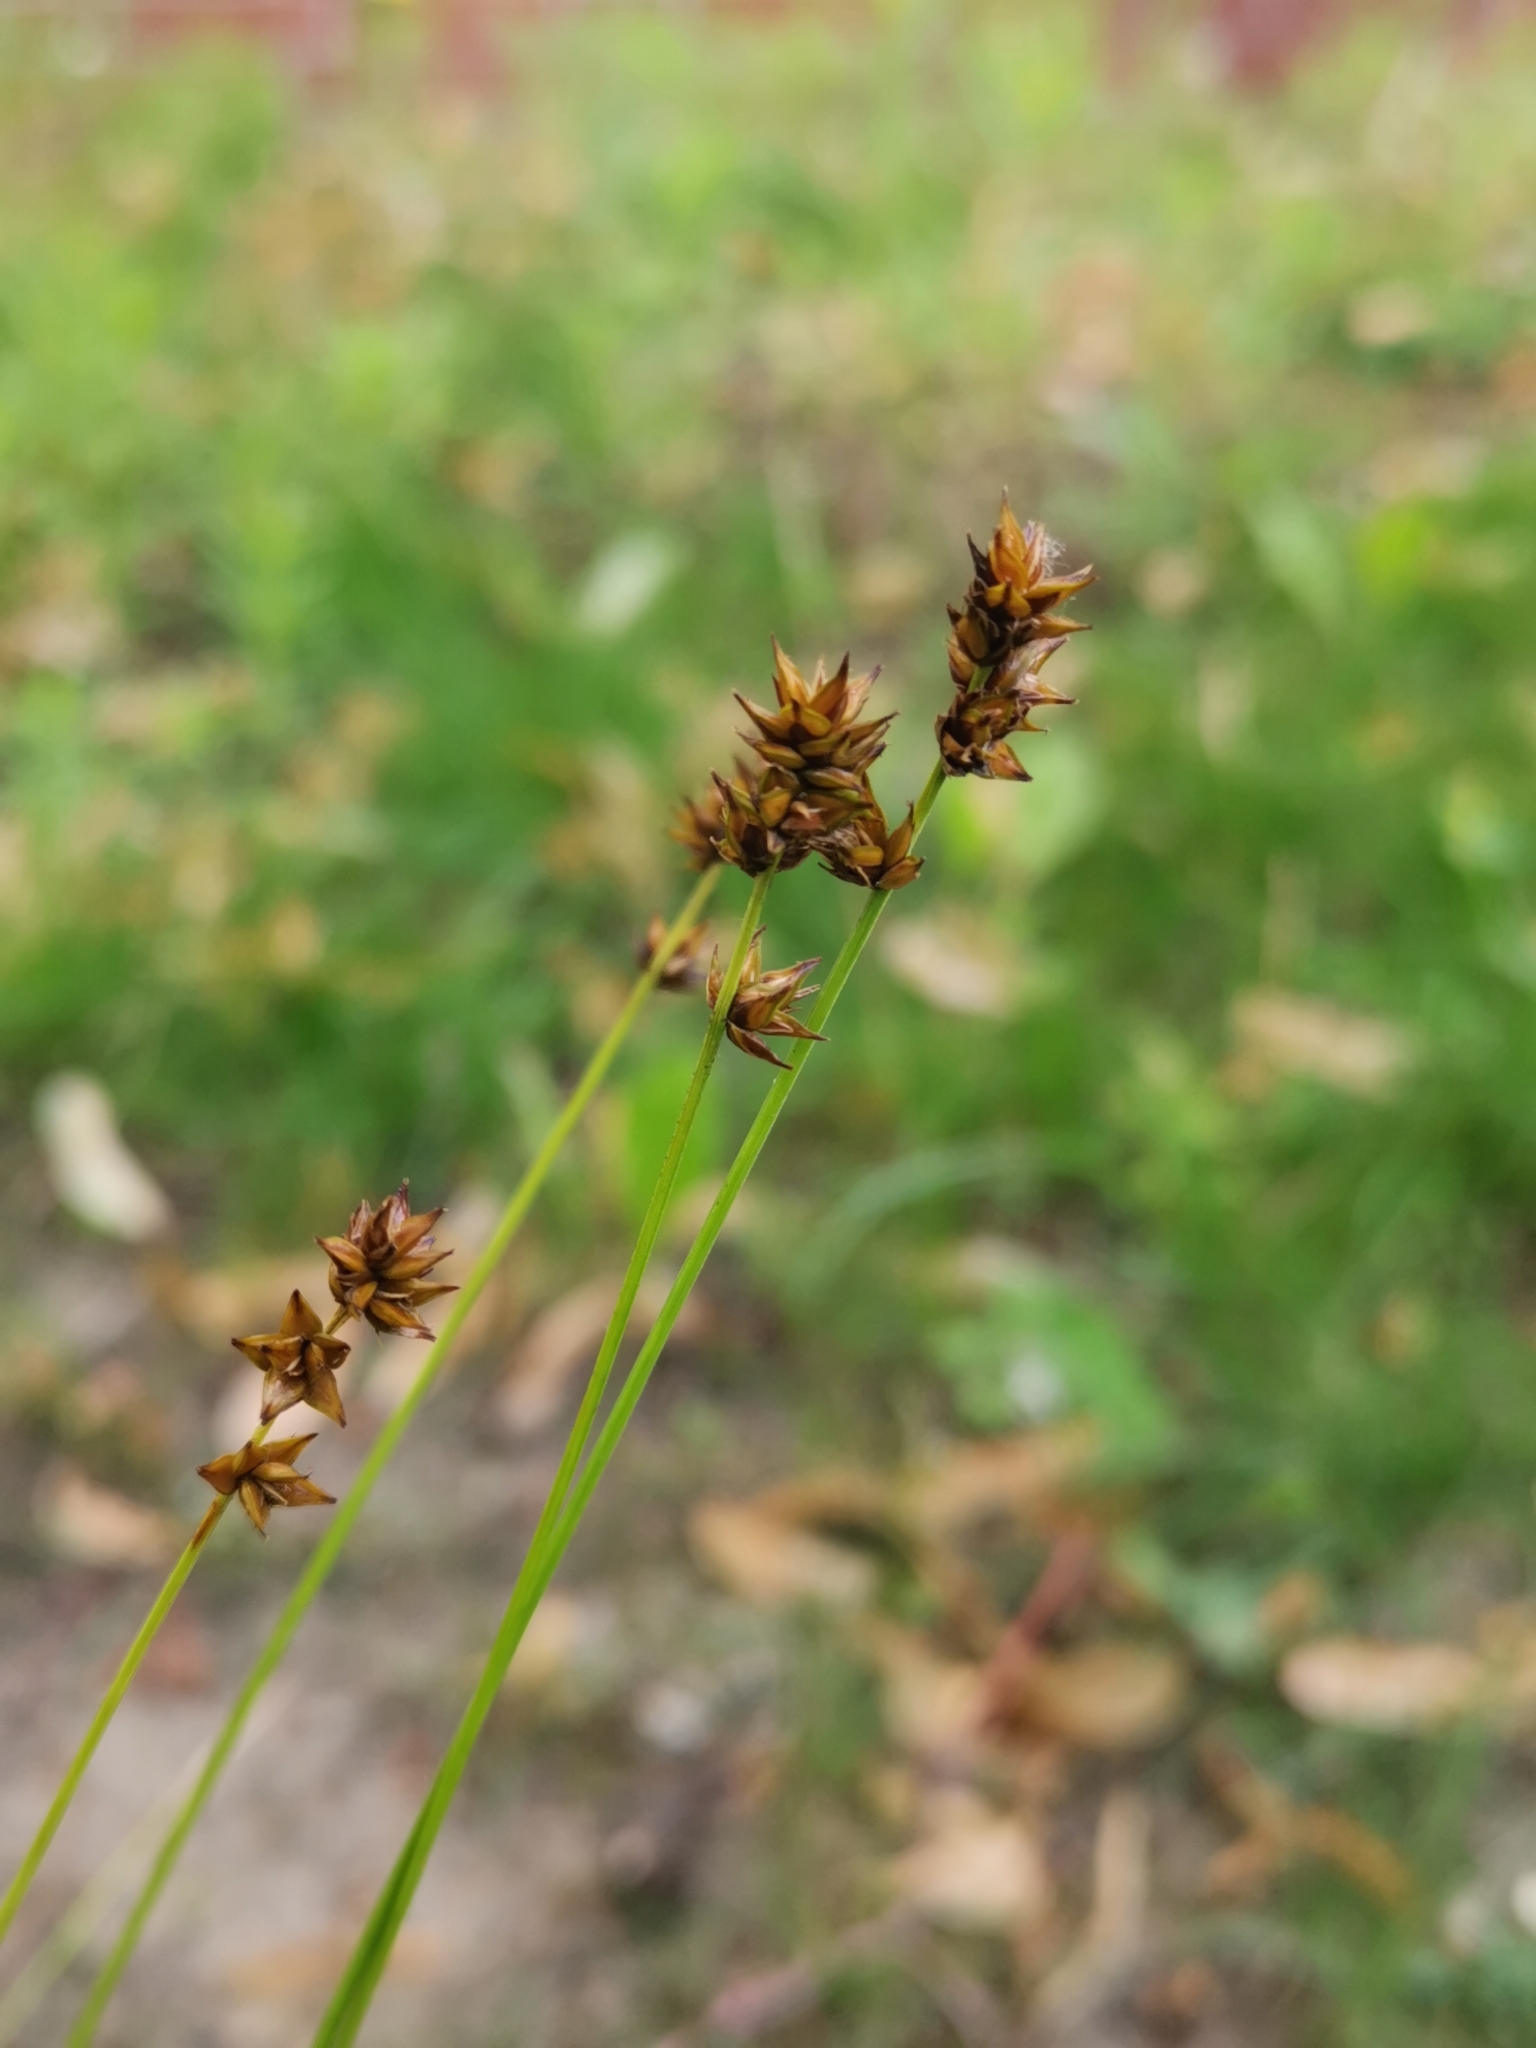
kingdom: Plantae
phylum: Tracheophyta
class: Liliopsida
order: Poales
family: Cyperaceae
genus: Carex
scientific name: Carex muricata
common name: Rough sedge
